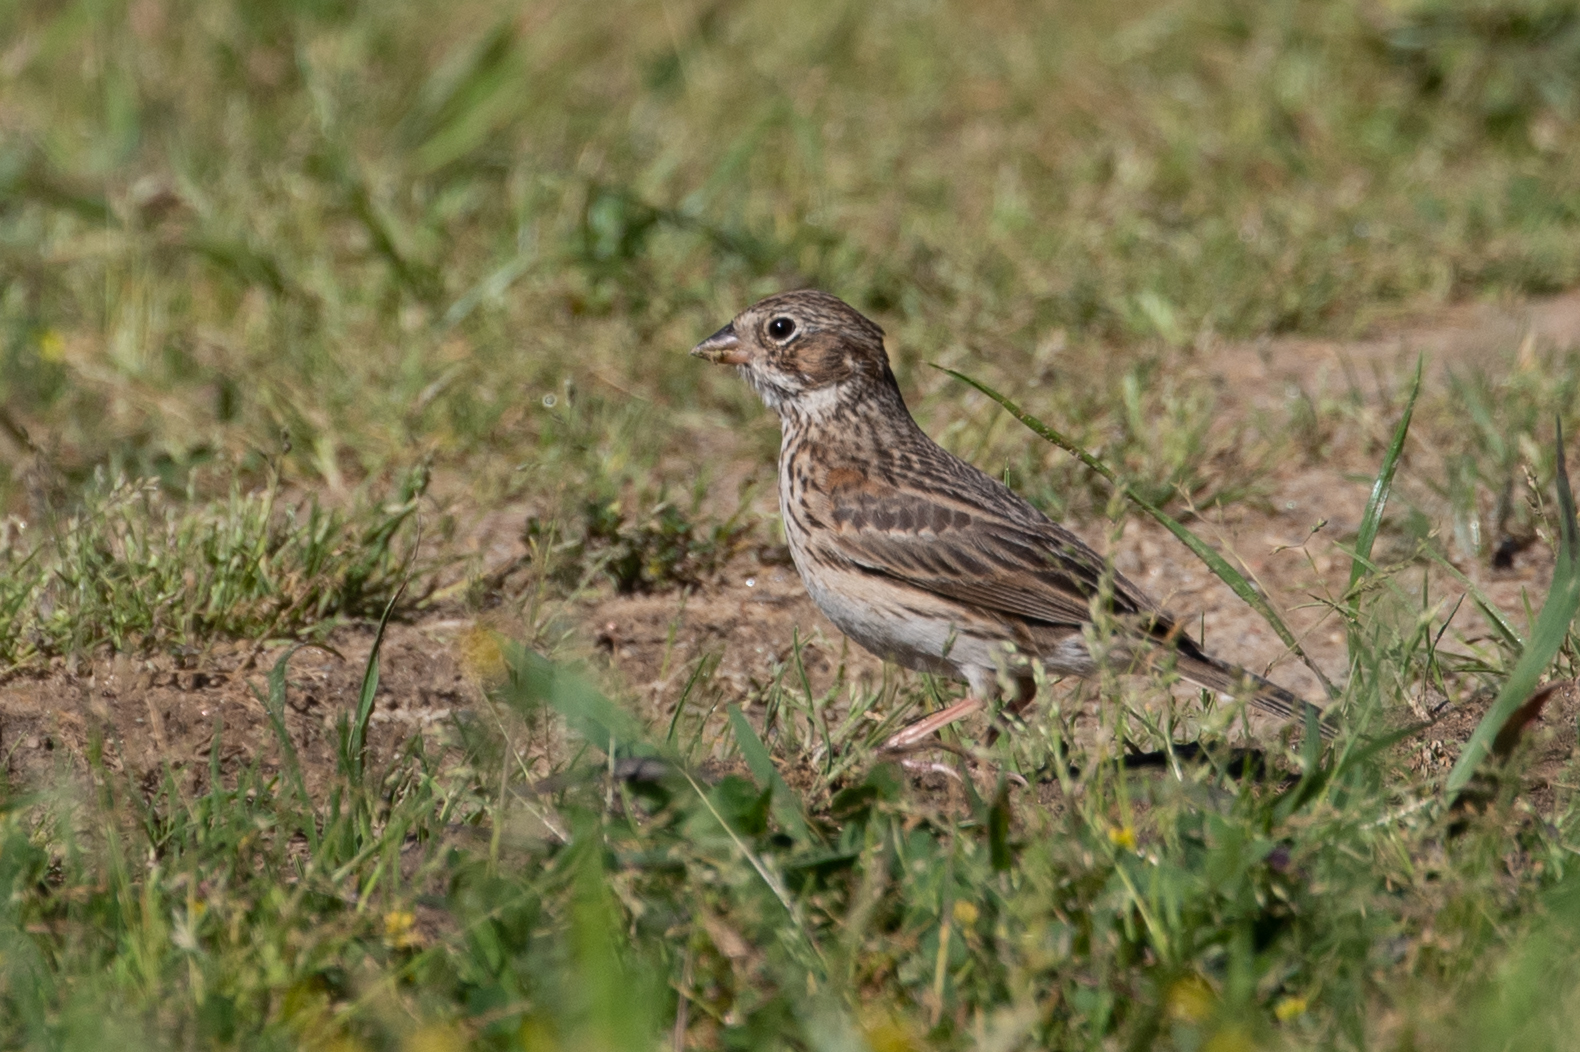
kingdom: Animalia
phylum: Chordata
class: Aves
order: Passeriformes
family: Passerellidae
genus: Pooecetes
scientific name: Pooecetes gramineus
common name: Vesper sparrow
